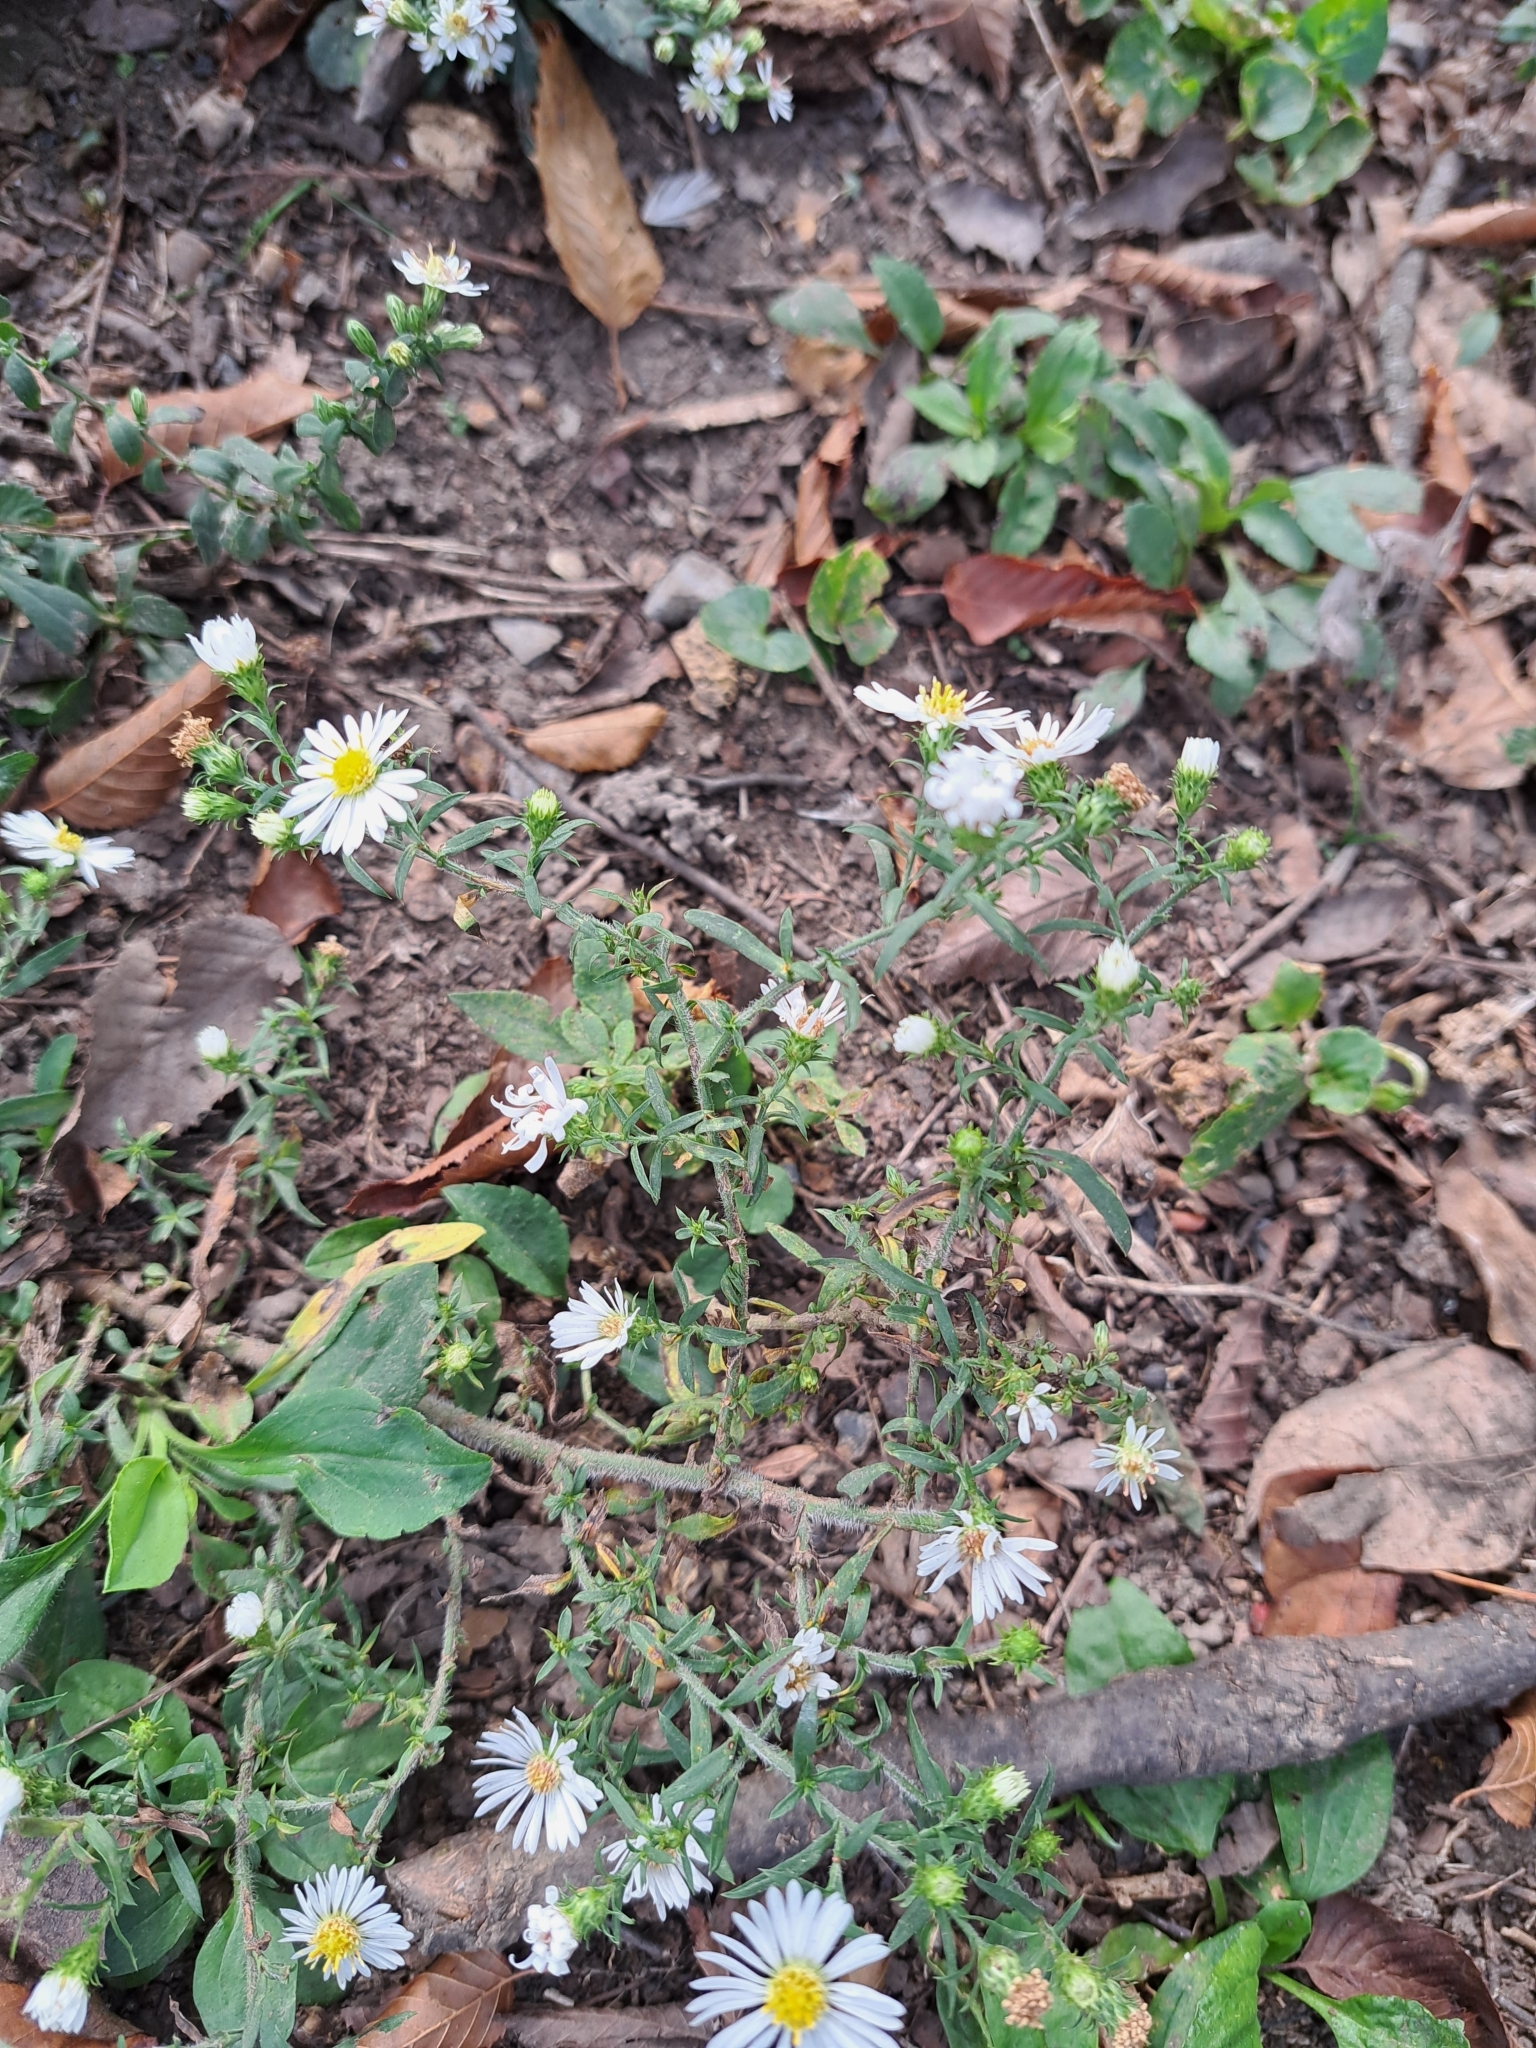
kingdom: Plantae
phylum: Tracheophyta
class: Magnoliopsida
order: Asterales
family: Asteraceae
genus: Symphyotrichum
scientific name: Symphyotrichum pilosum
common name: Awl aster
